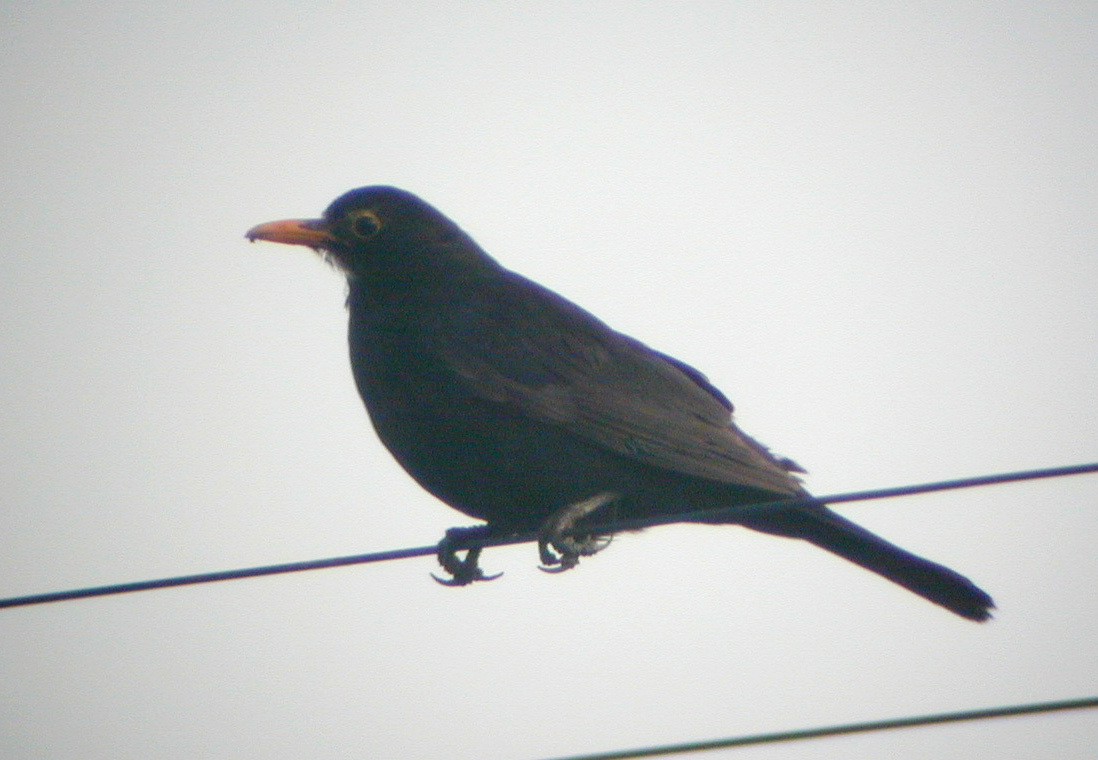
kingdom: Animalia
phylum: Chordata
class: Aves
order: Passeriformes
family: Turdidae
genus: Turdus
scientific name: Turdus merula
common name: Common blackbird
